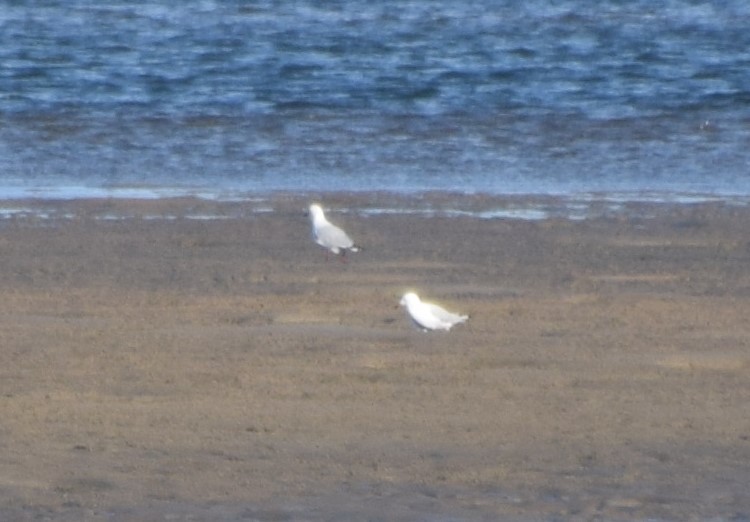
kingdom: Animalia
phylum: Chordata
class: Aves
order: Charadriiformes
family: Laridae
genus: Chroicocephalus
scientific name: Chroicocephalus novaehollandiae
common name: Silver gull
